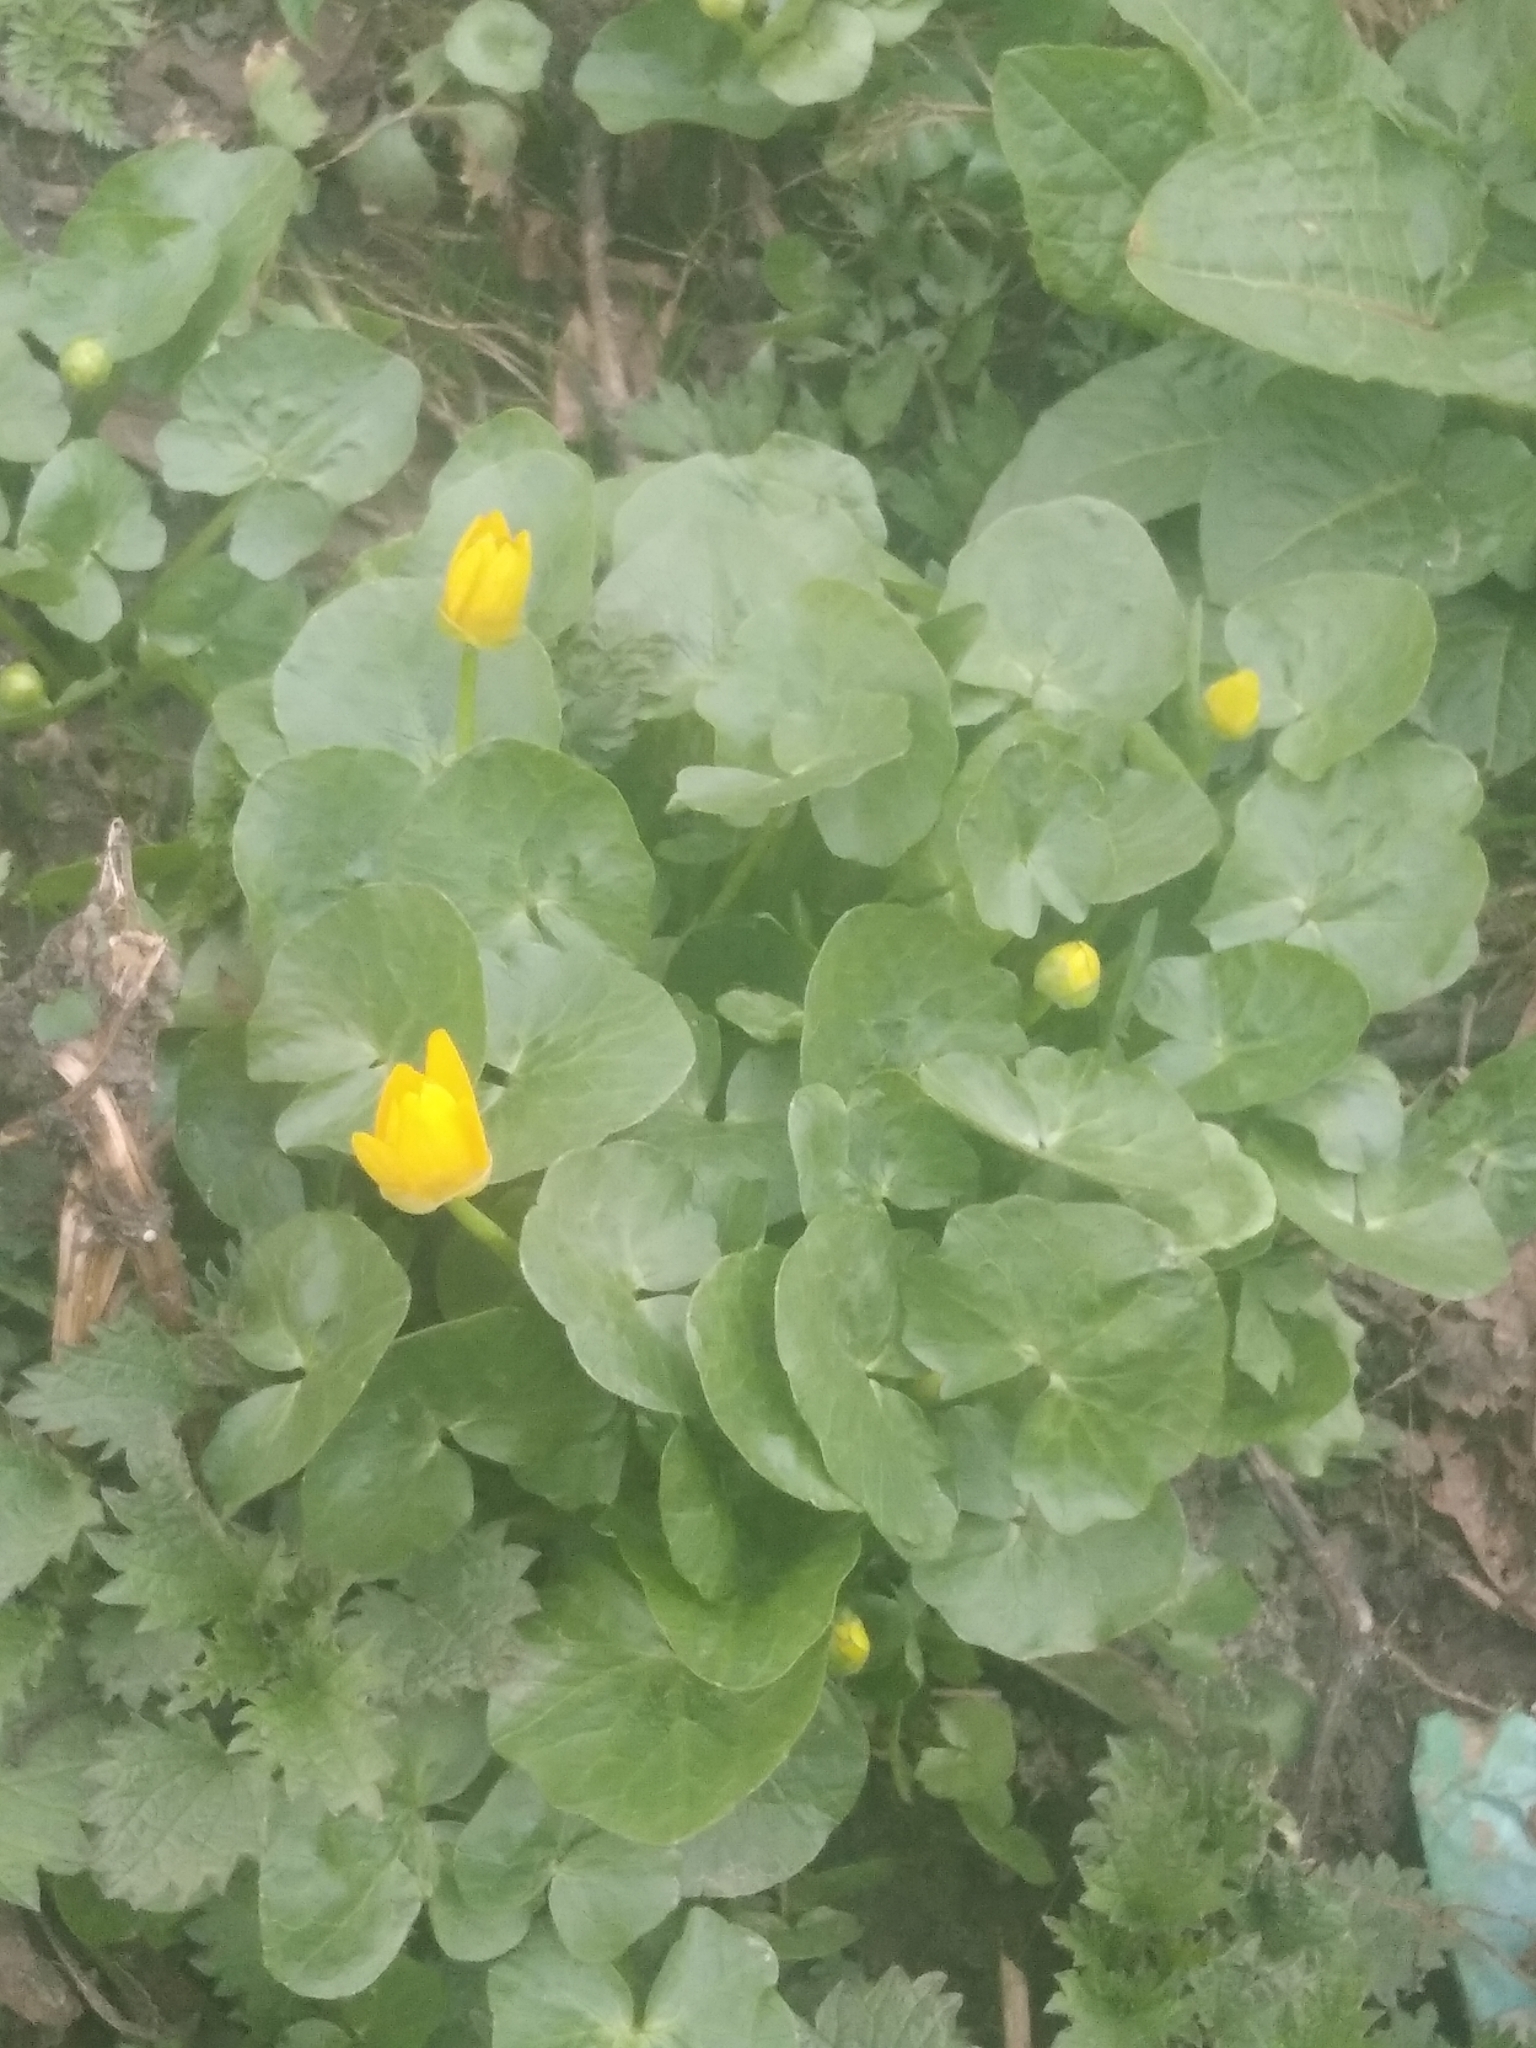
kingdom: Plantae
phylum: Tracheophyta
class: Magnoliopsida
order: Ranunculales
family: Ranunculaceae
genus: Ficaria
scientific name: Ficaria verna
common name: Lesser celandine
